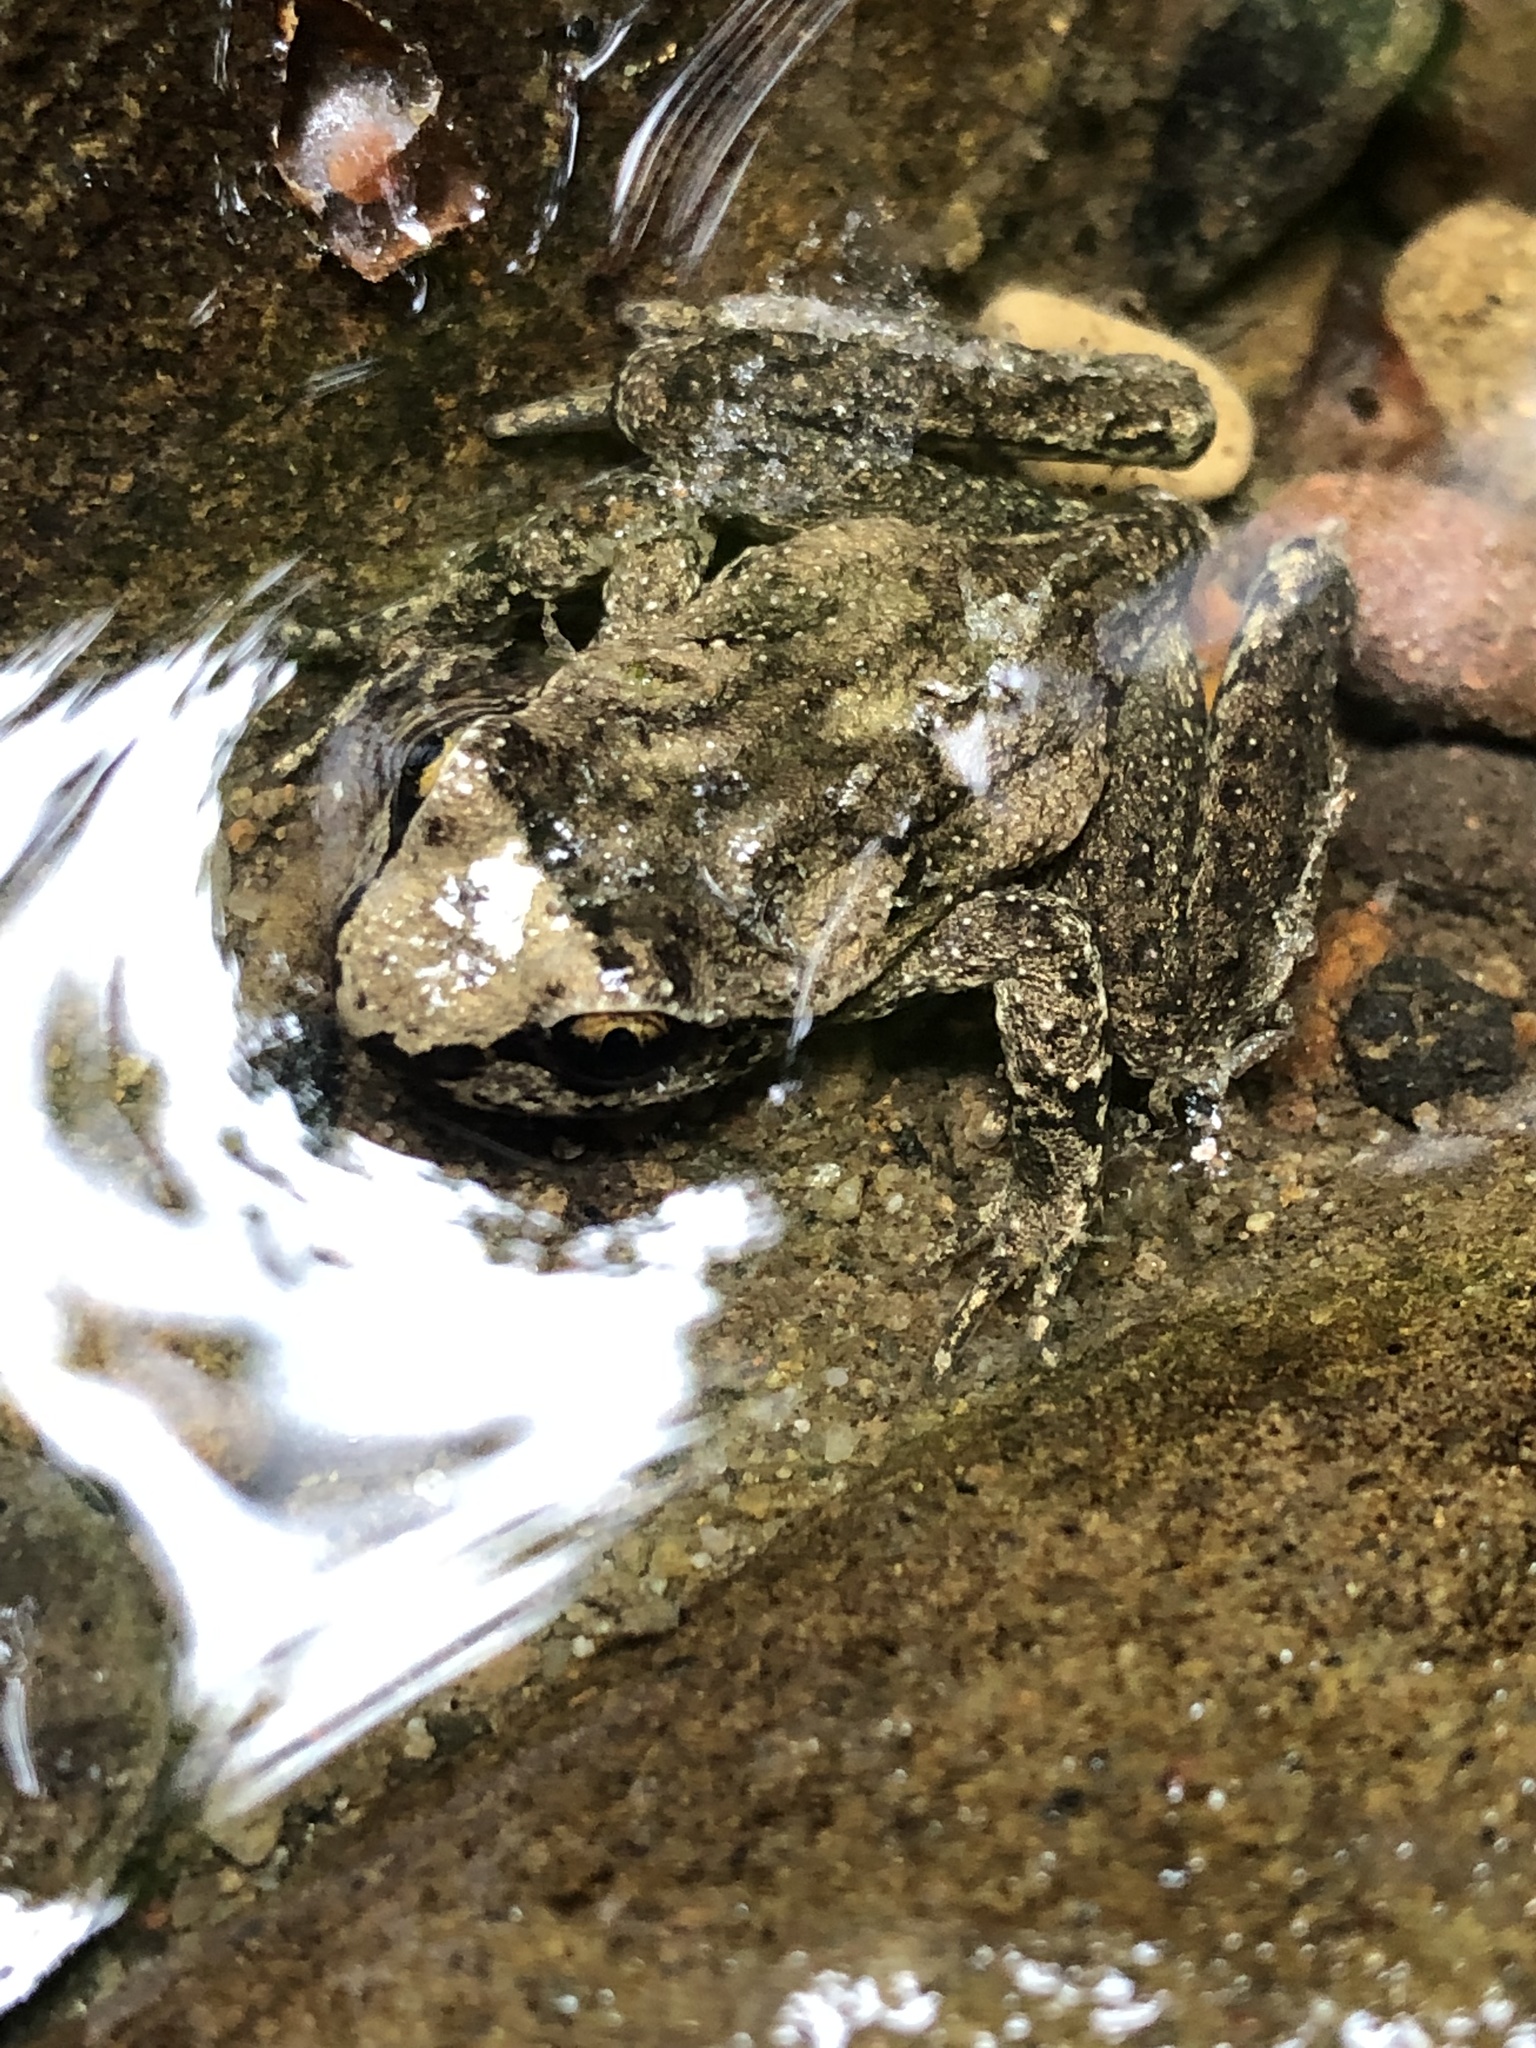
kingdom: Animalia
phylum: Chordata
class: Amphibia
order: Anura
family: Ascaphidae
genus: Ascaphus
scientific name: Ascaphus truei
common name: Tailed frog
